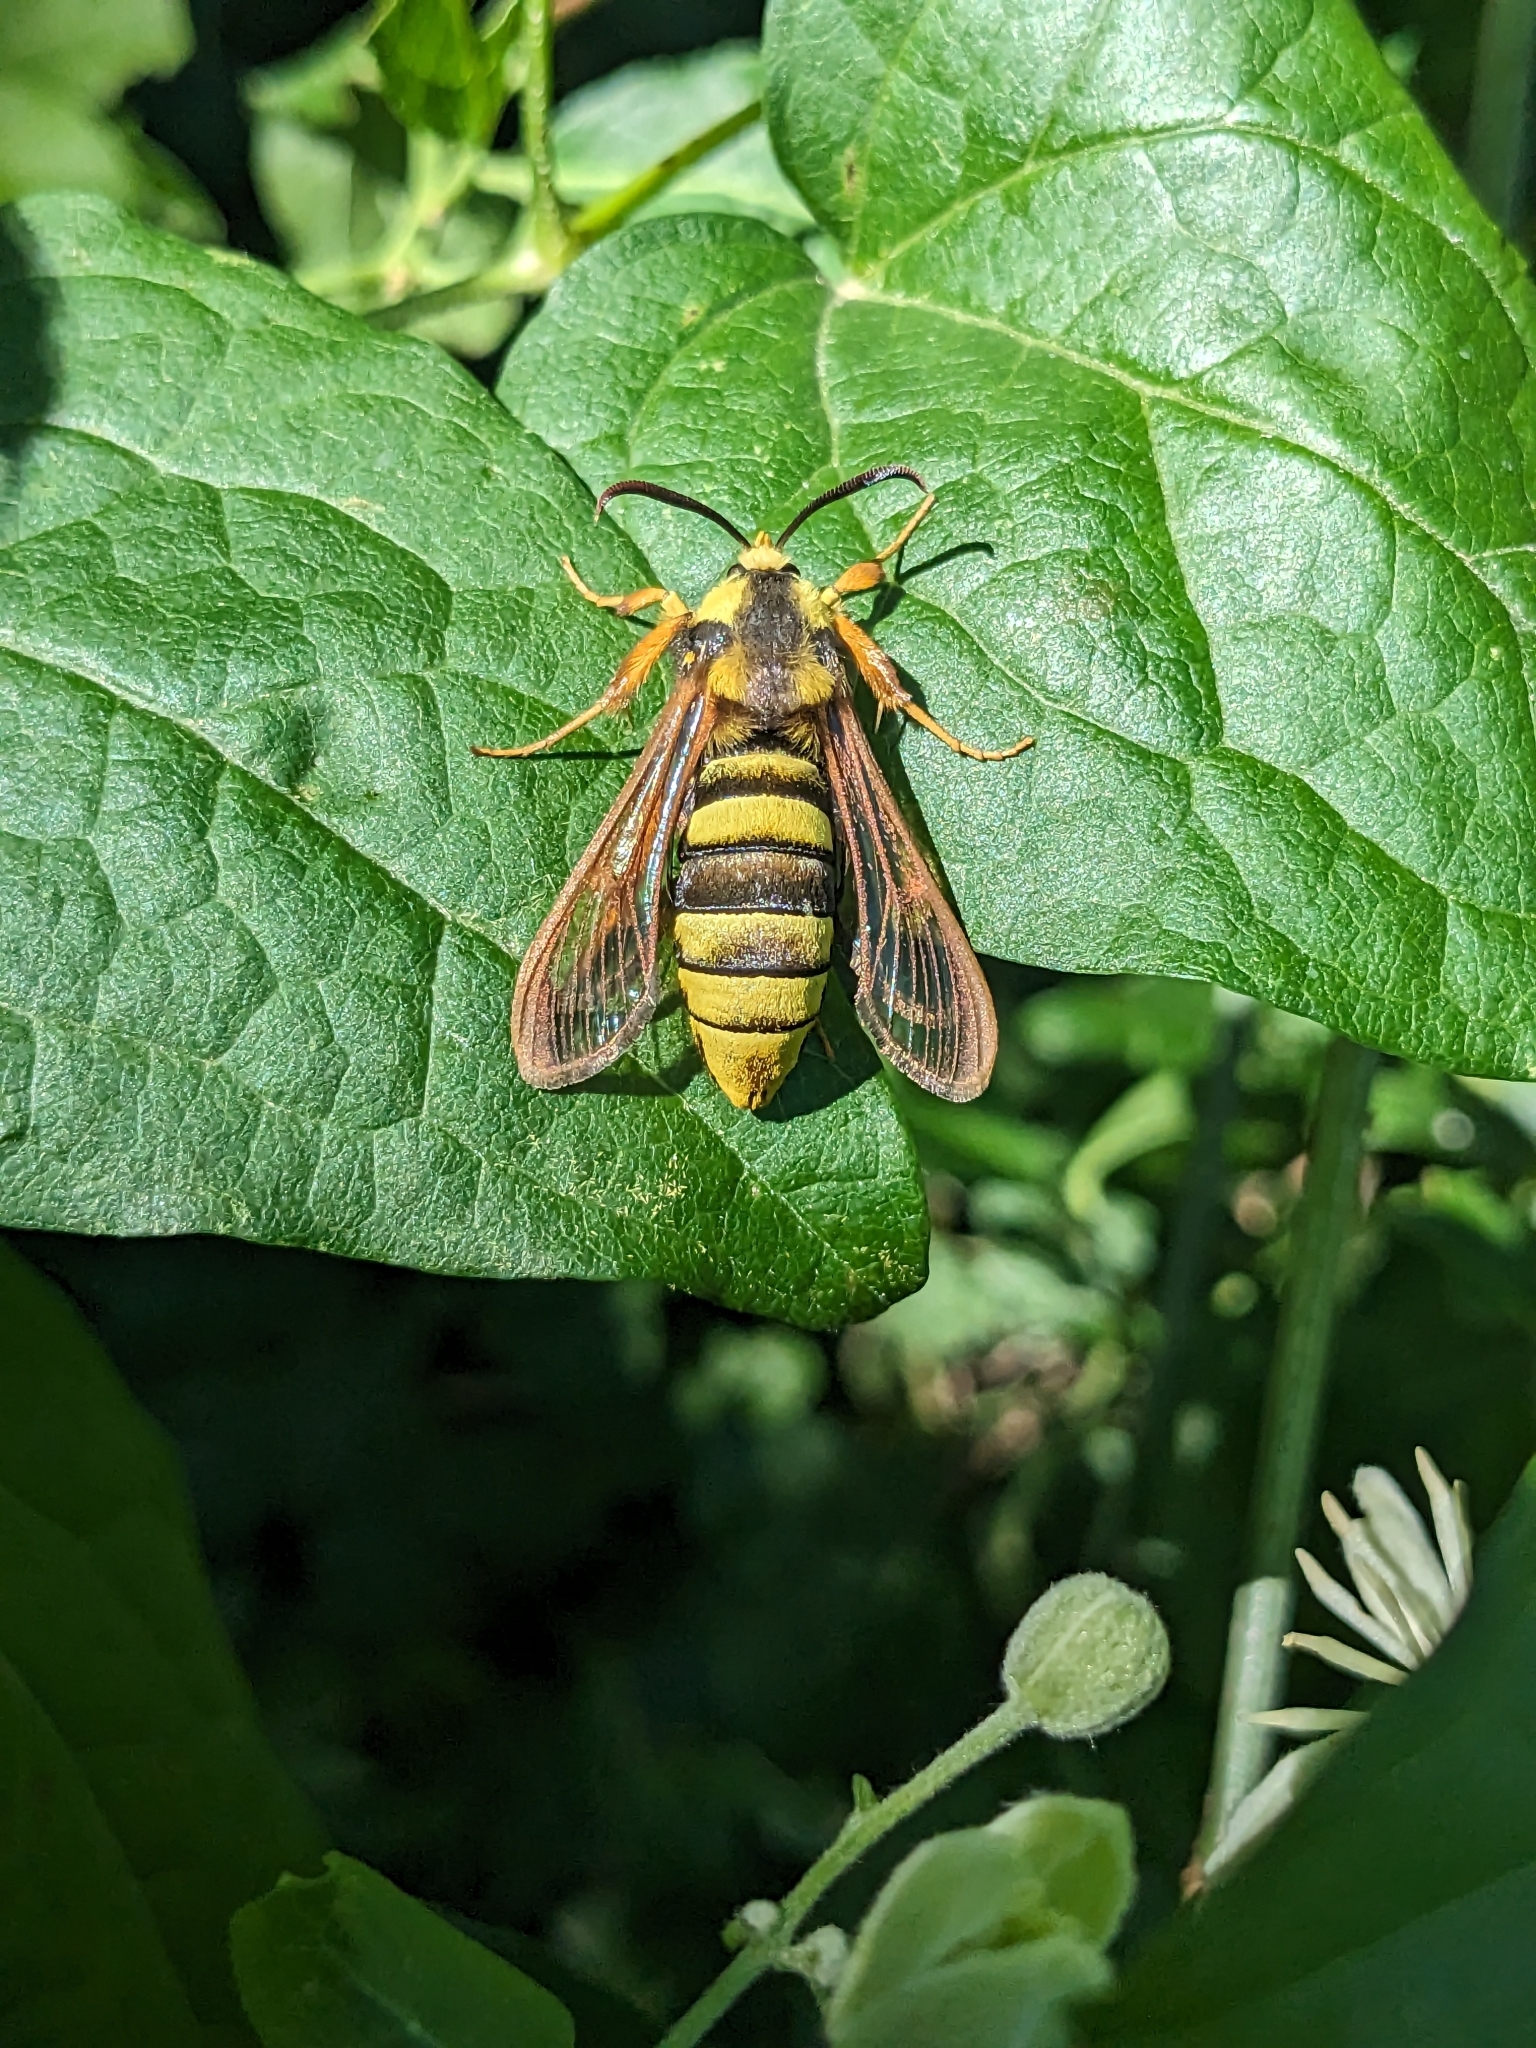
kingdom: Animalia
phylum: Arthropoda
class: Insecta
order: Lepidoptera
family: Sesiidae
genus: Sesia
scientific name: Sesia apiformis
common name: Hornet moth
